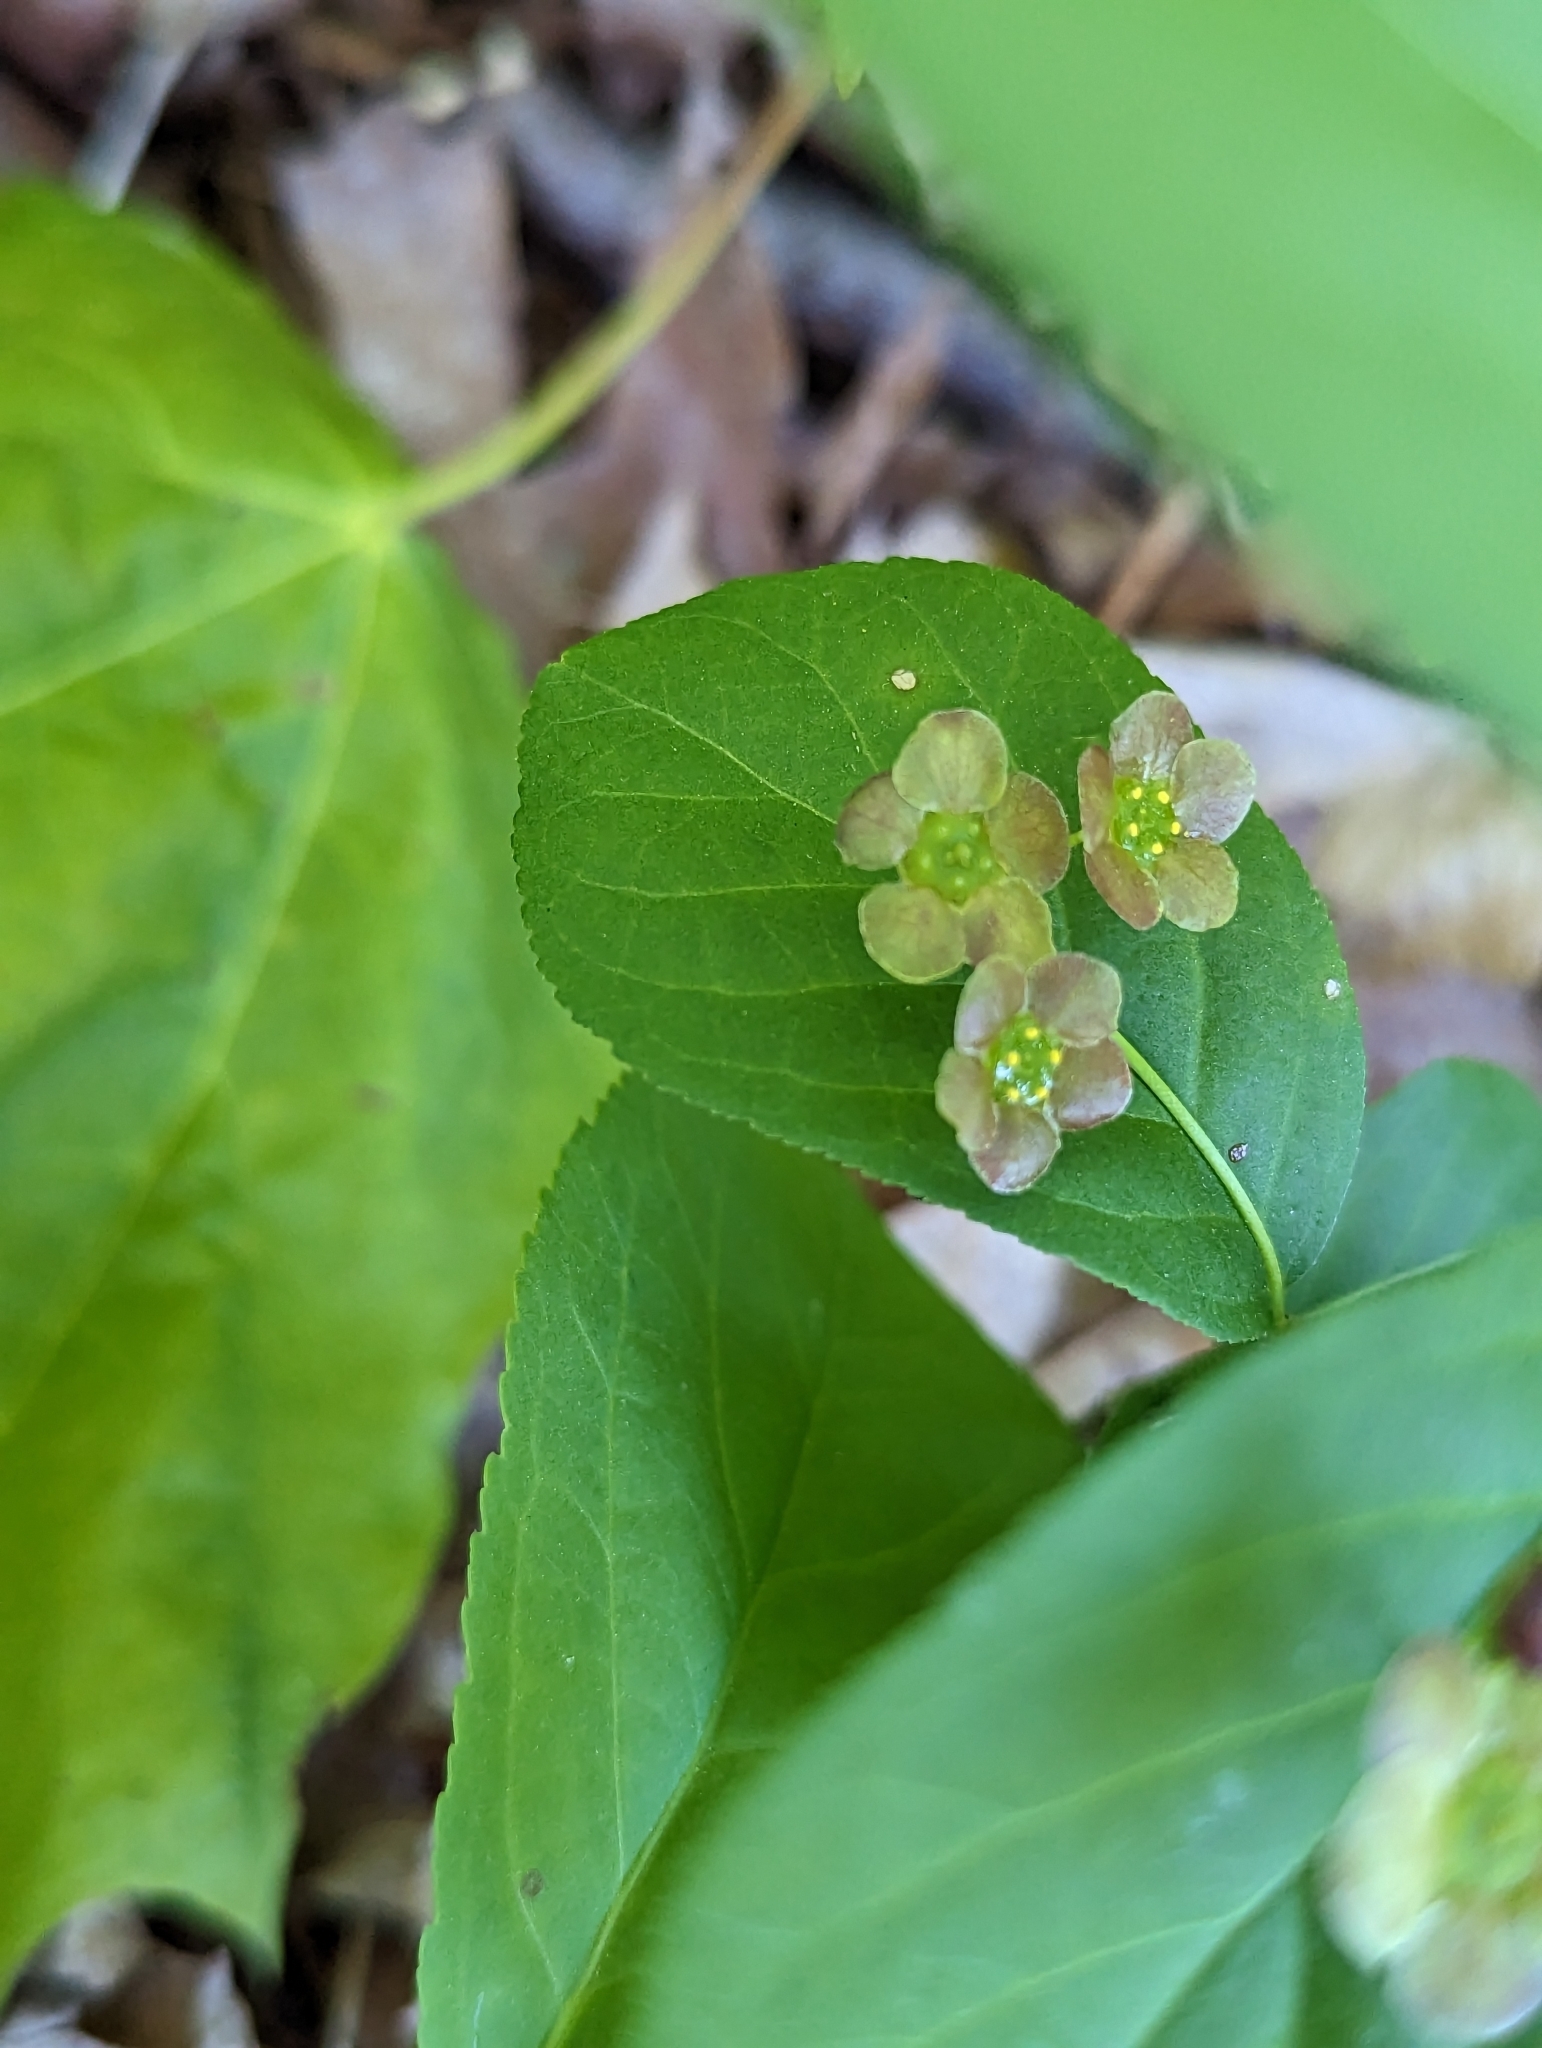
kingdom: Plantae
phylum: Tracheophyta
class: Magnoliopsida
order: Celastrales
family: Celastraceae
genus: Euonymus
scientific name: Euonymus obovatus
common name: Running strawberry-bush
